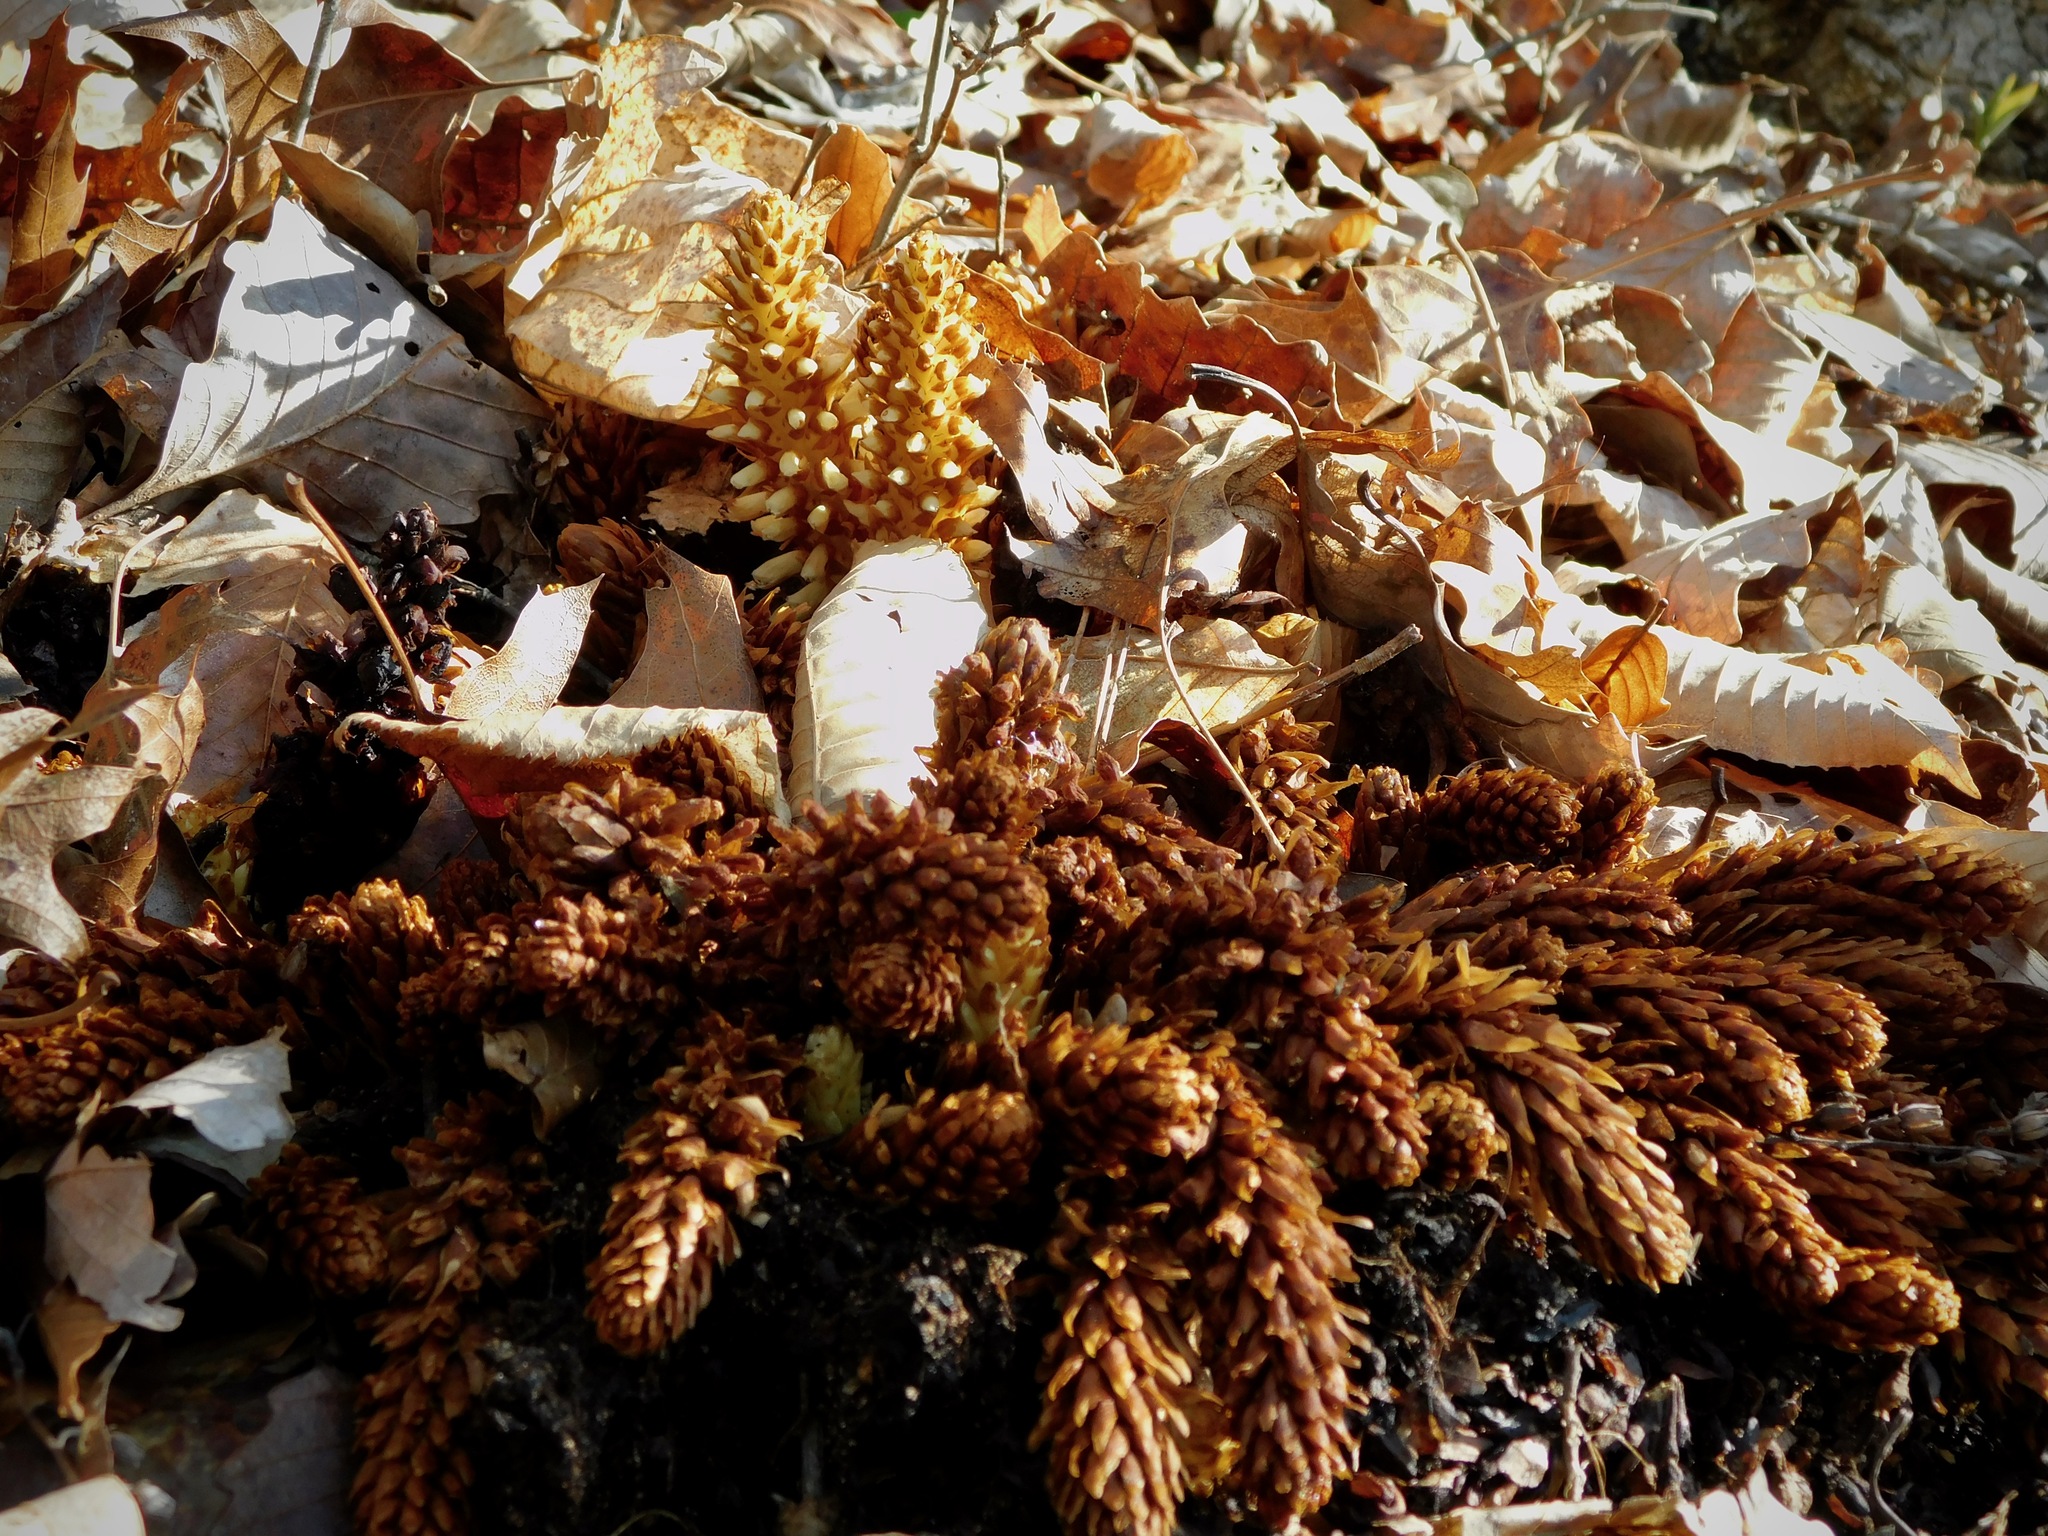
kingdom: Plantae
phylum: Tracheophyta
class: Magnoliopsida
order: Lamiales
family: Orobanchaceae
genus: Conopholis
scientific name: Conopholis americana
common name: American cancer-root
